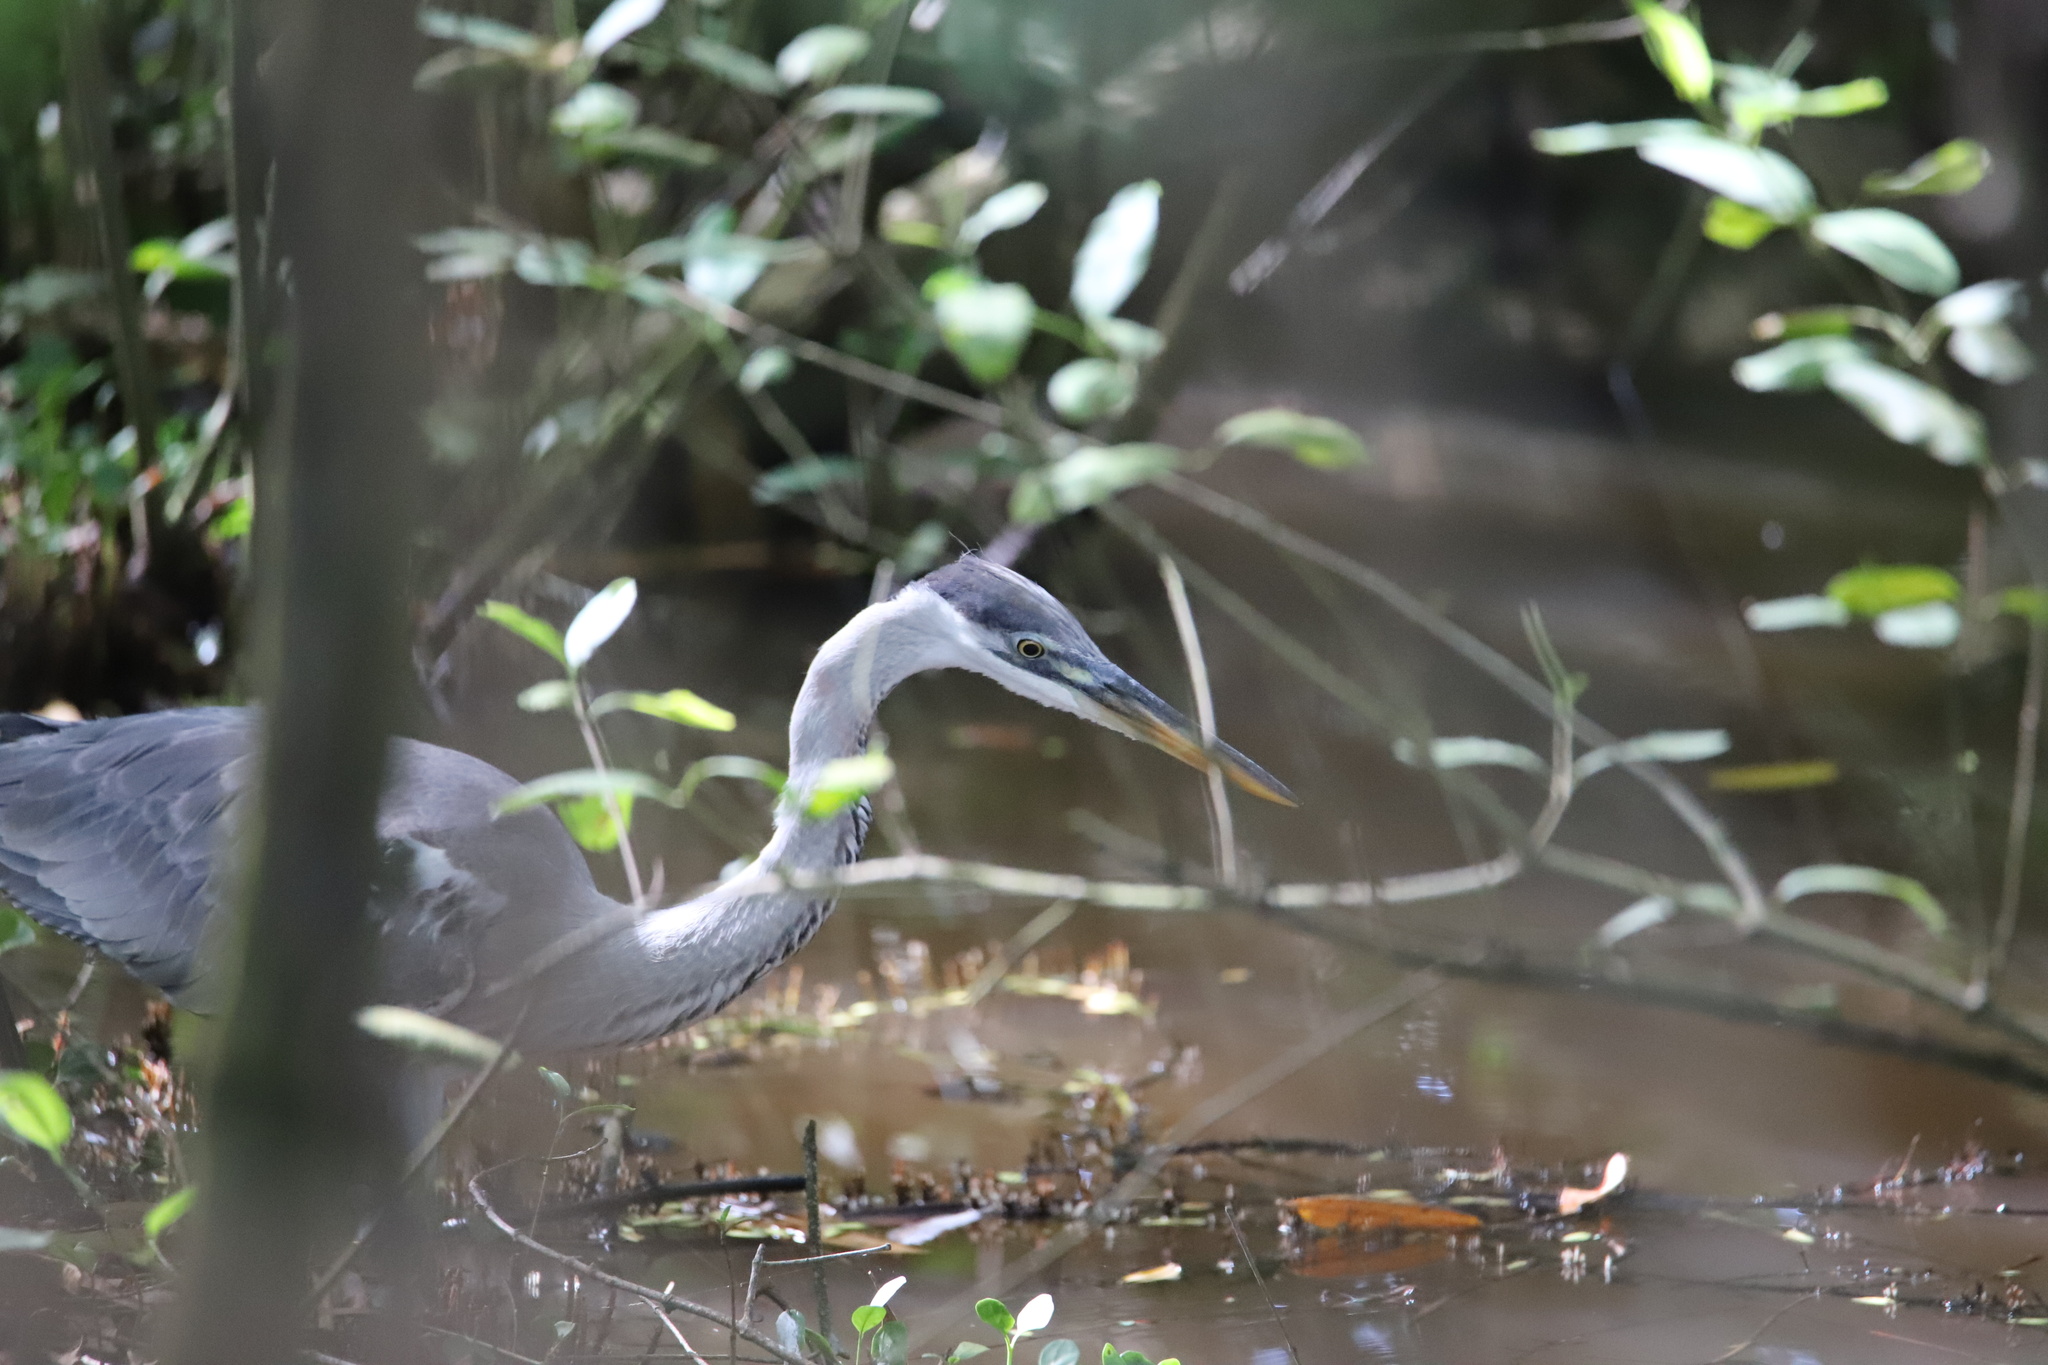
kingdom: Animalia
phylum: Chordata
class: Aves
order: Pelecaniformes
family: Ardeidae
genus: Ardea
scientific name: Ardea cocoi
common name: Cocoi heron
